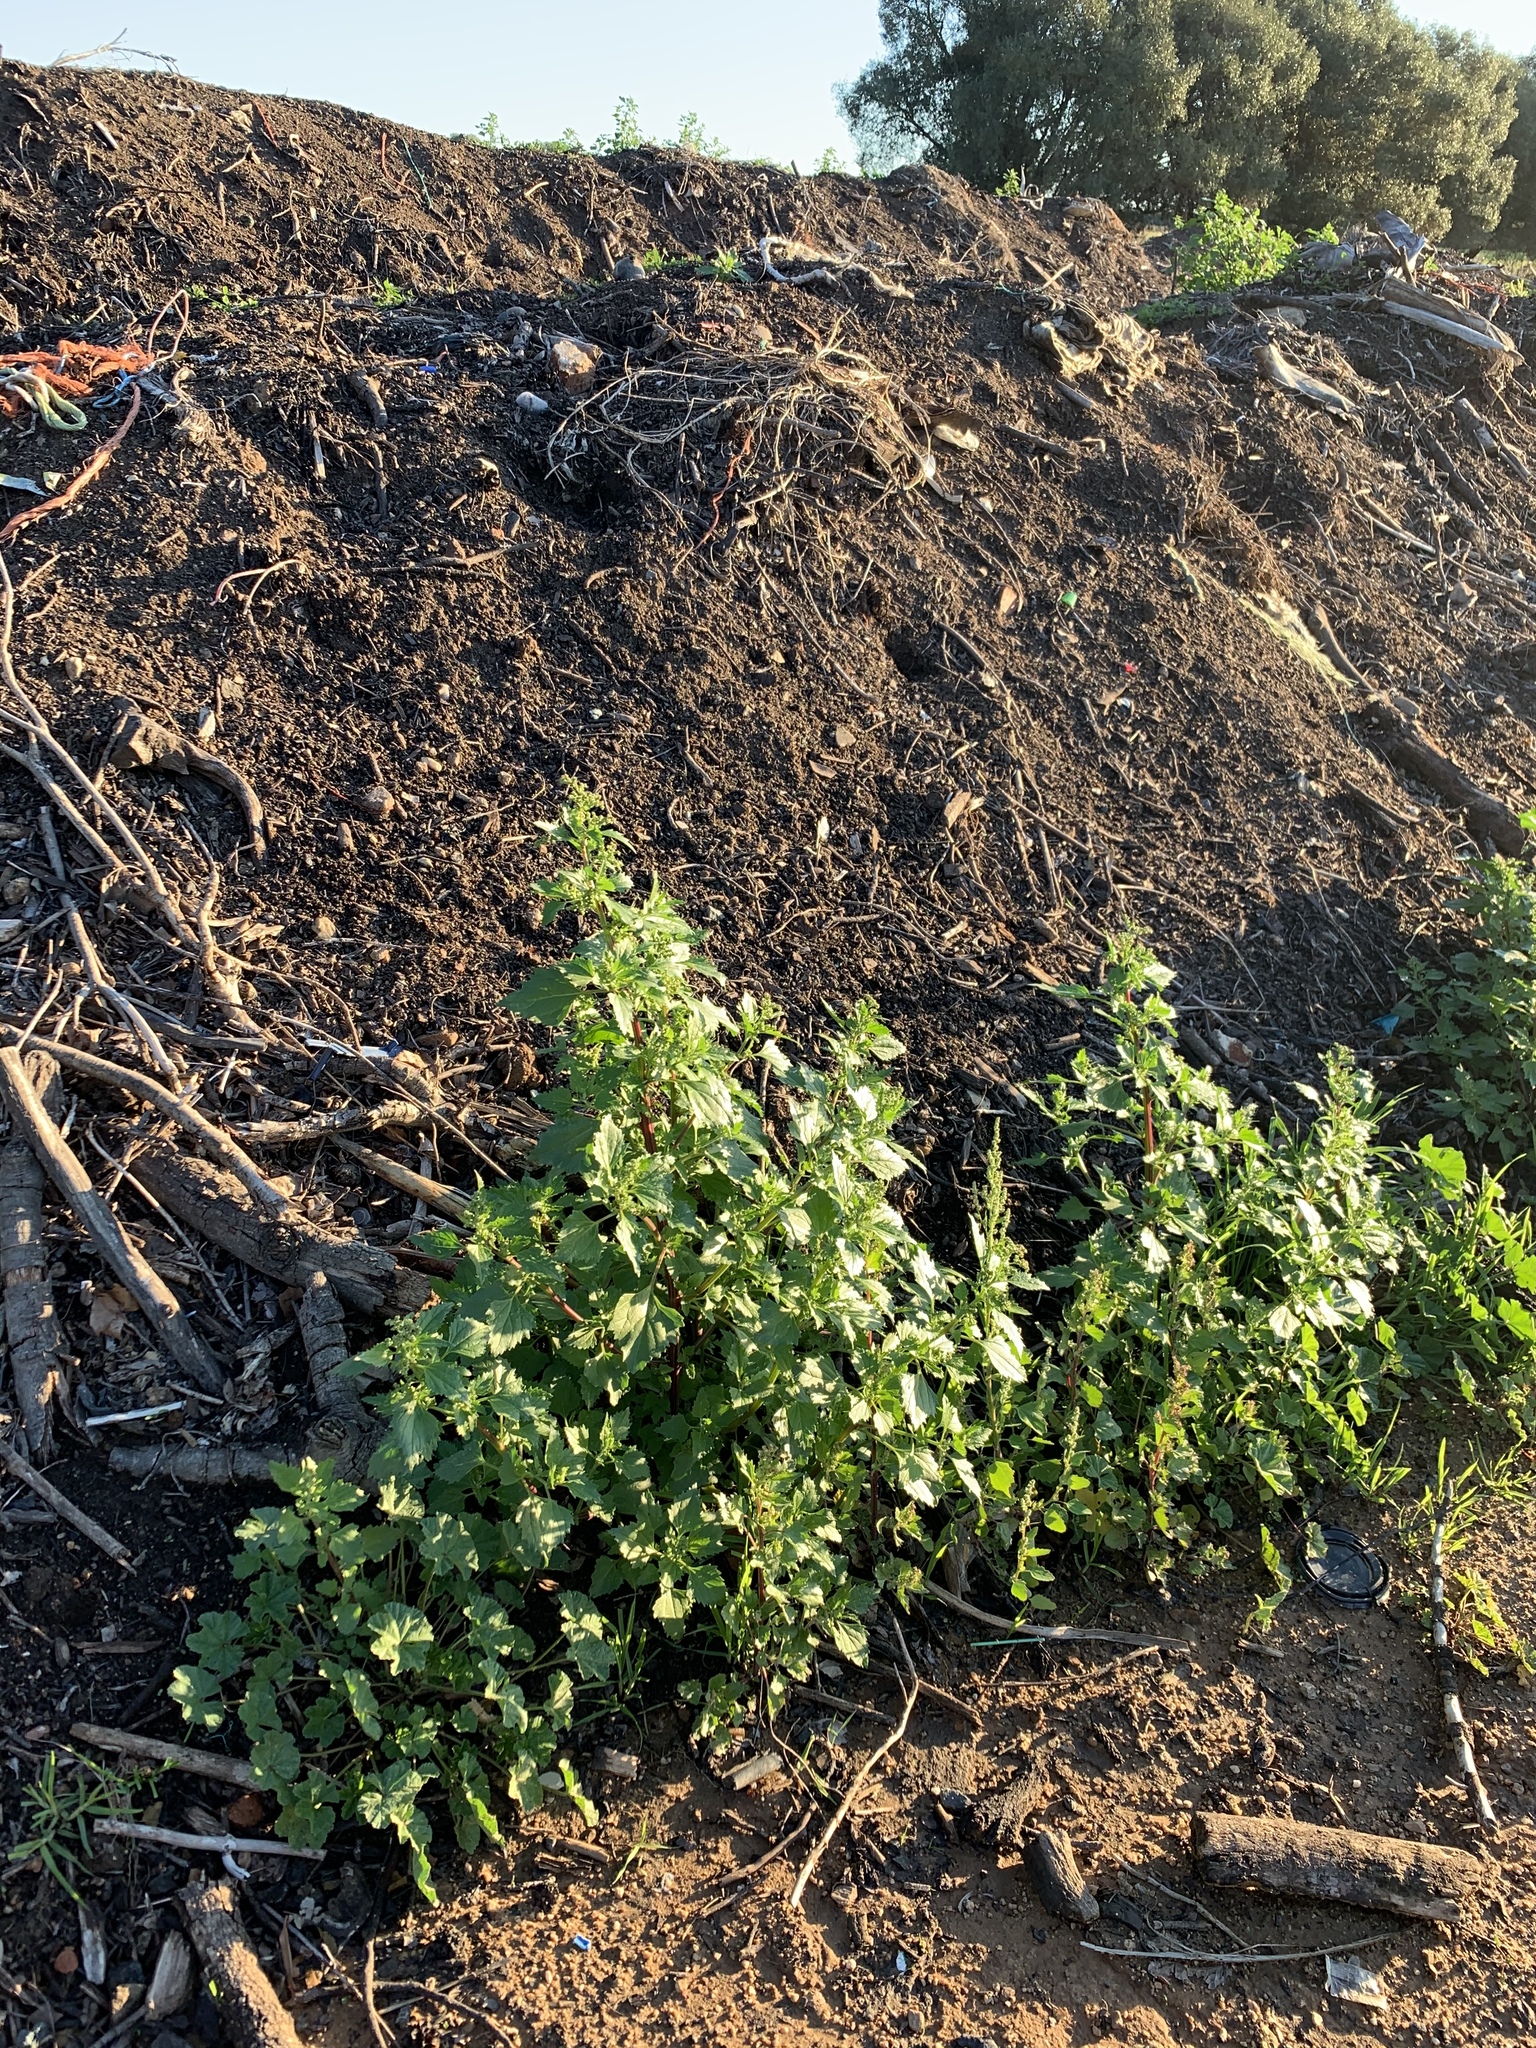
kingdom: Plantae
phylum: Tracheophyta
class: Magnoliopsida
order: Caryophyllales
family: Amaranthaceae
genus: Chenopodiastrum
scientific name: Chenopodiastrum murale
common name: Sowbane
